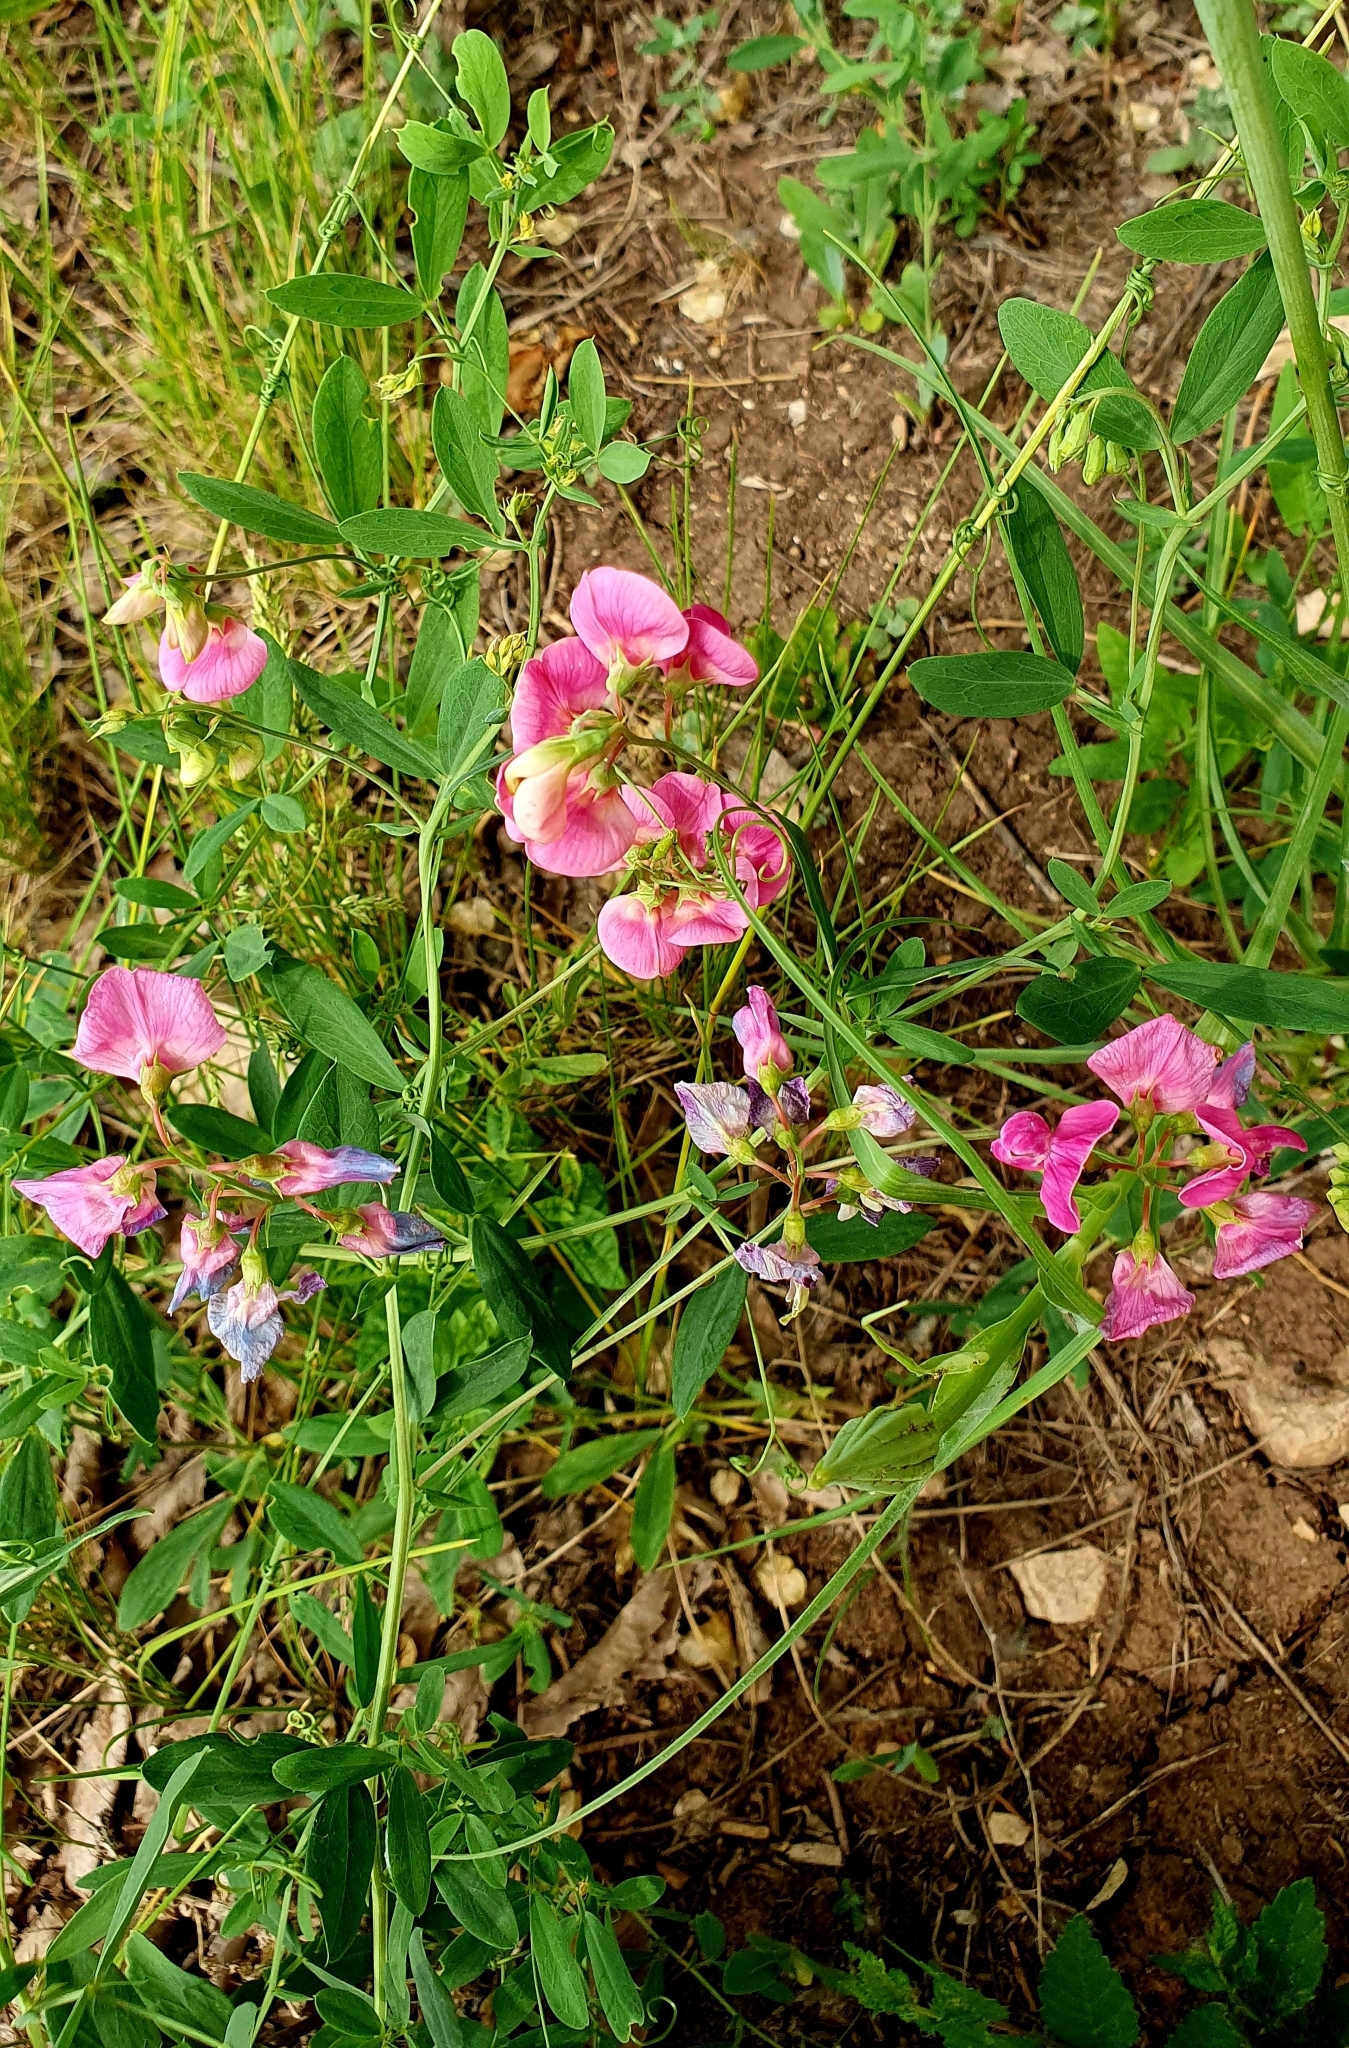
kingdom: Plantae
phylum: Tracheophyta
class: Magnoliopsida
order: Fabales
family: Fabaceae
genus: Lathyrus
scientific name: Lathyrus tuberosus
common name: Tuberous pea
